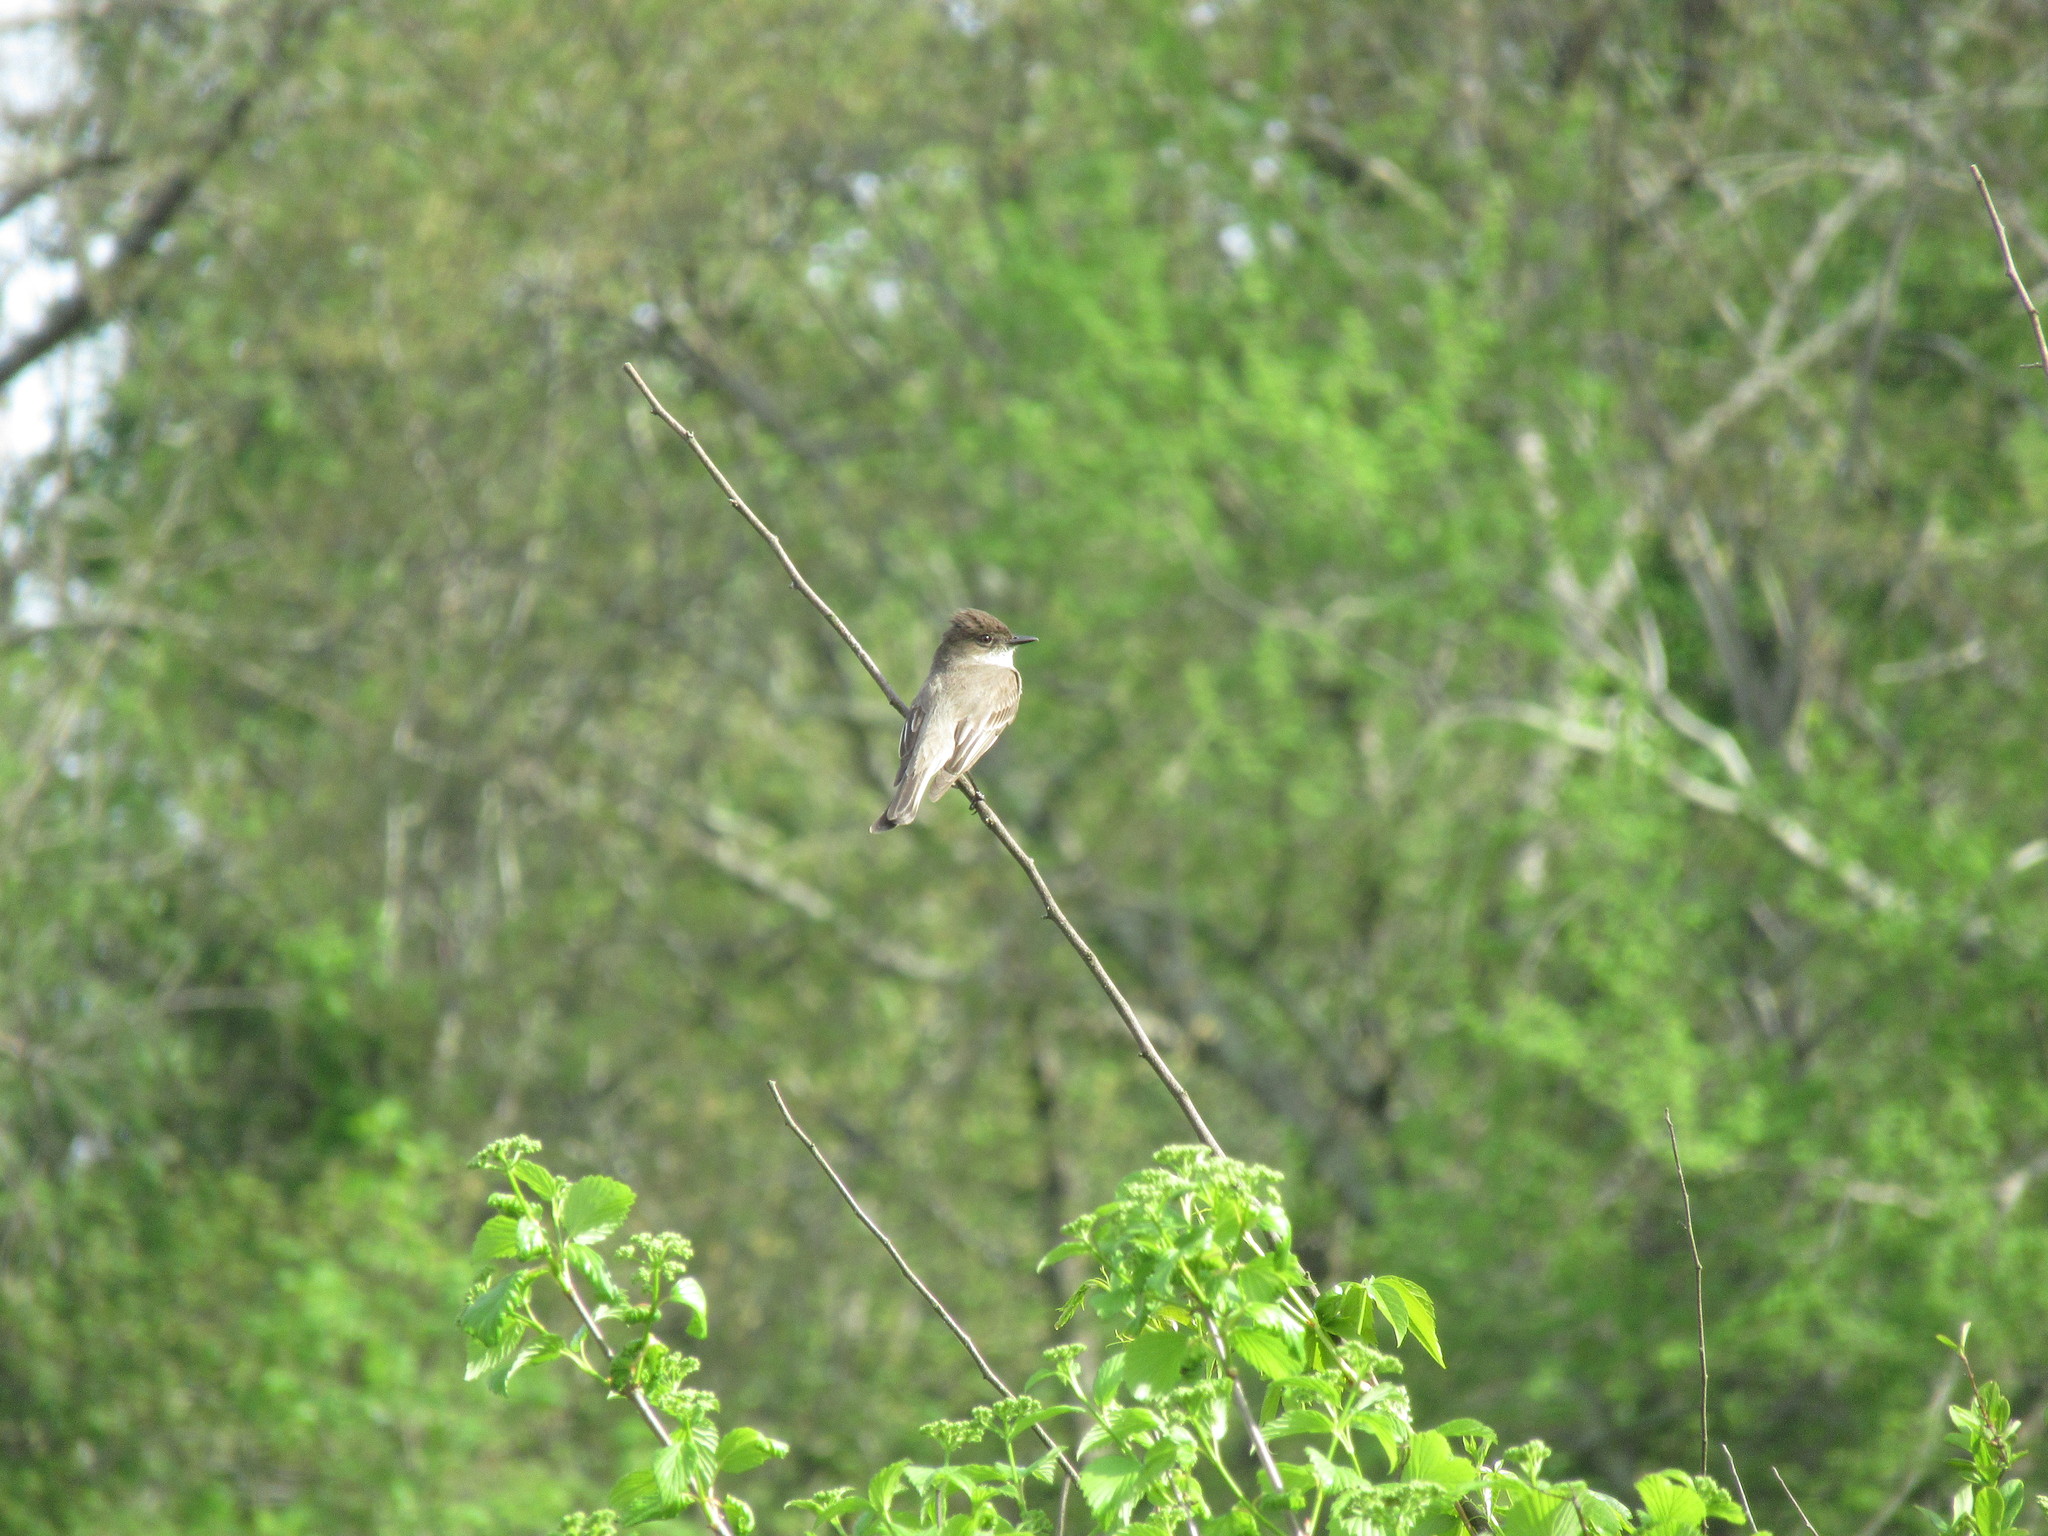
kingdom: Animalia
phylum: Chordata
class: Aves
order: Passeriformes
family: Tyrannidae
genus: Sayornis
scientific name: Sayornis phoebe
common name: Eastern phoebe
